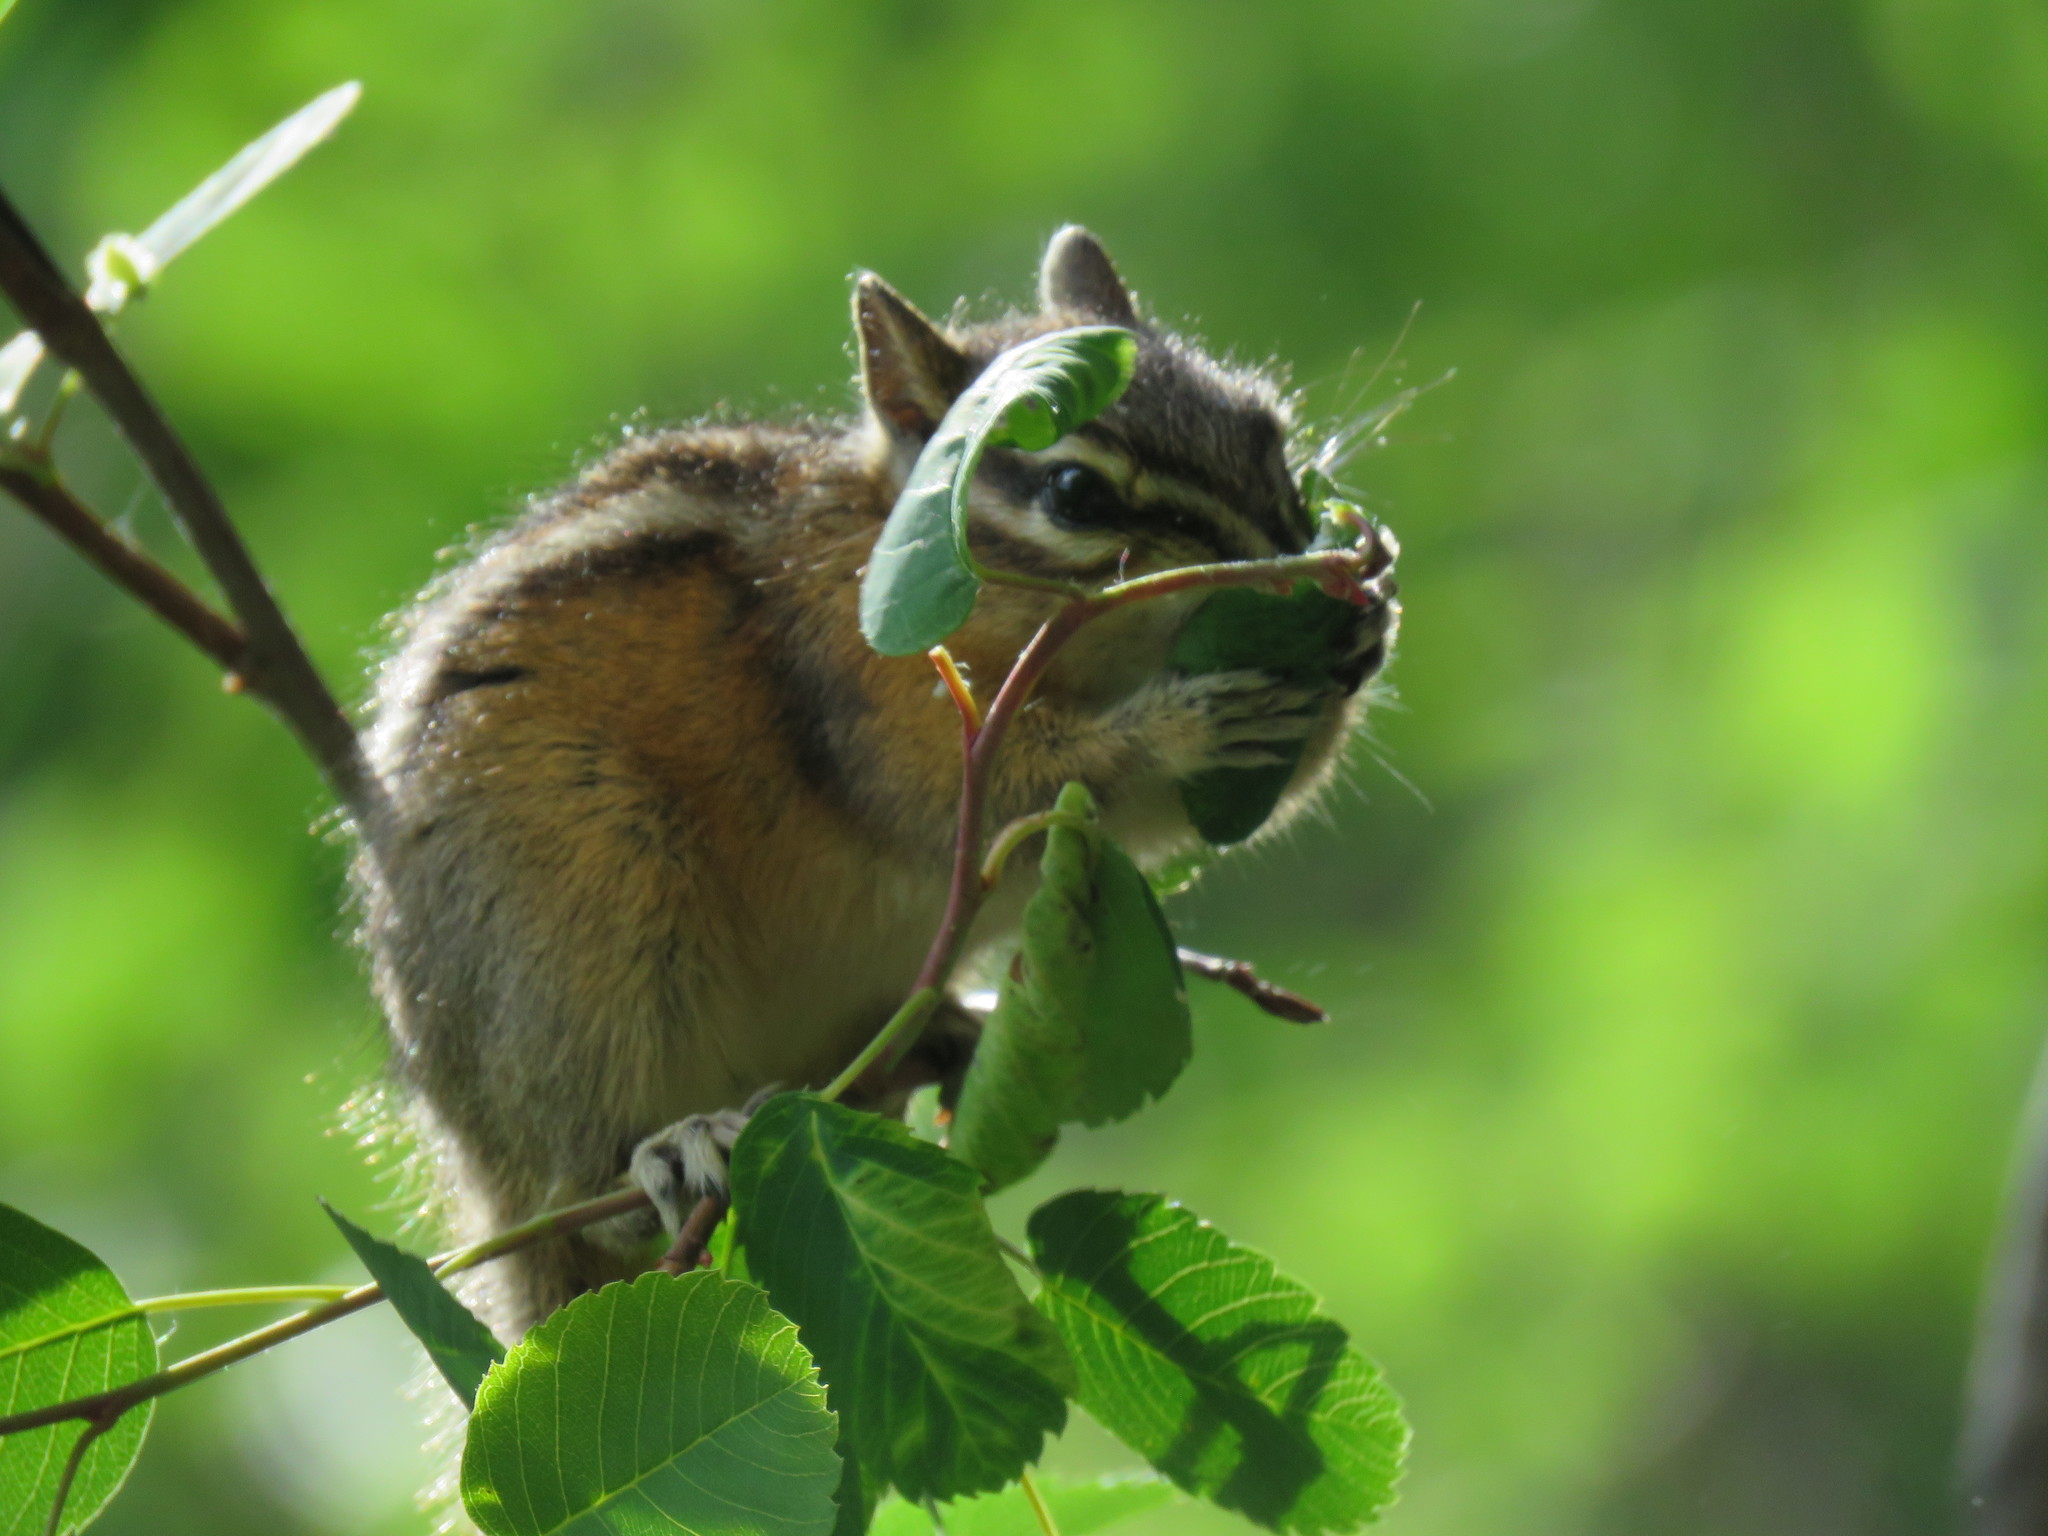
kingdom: Animalia
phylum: Chordata
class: Mammalia
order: Rodentia
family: Sciuridae
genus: Neotamias
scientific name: Neotamias
